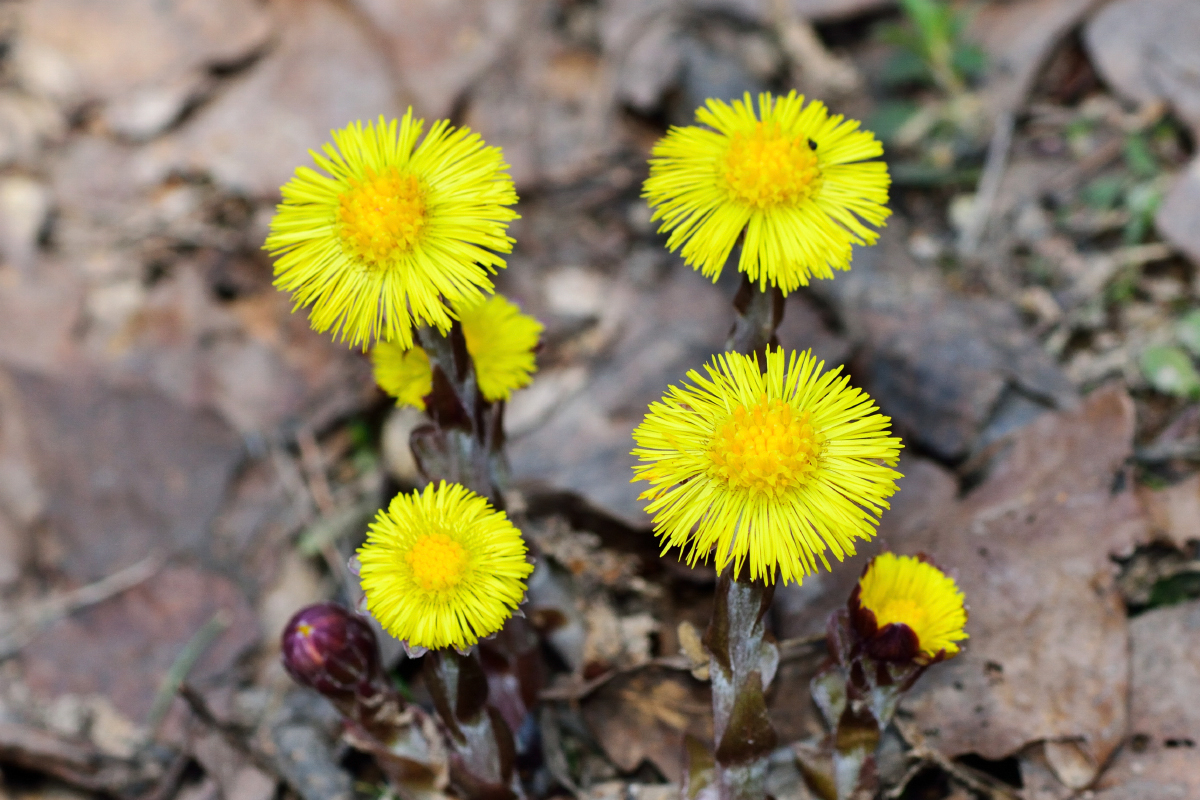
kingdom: Plantae
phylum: Tracheophyta
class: Magnoliopsida
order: Asterales
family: Asteraceae
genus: Tussilago
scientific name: Tussilago farfara
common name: Coltsfoot
